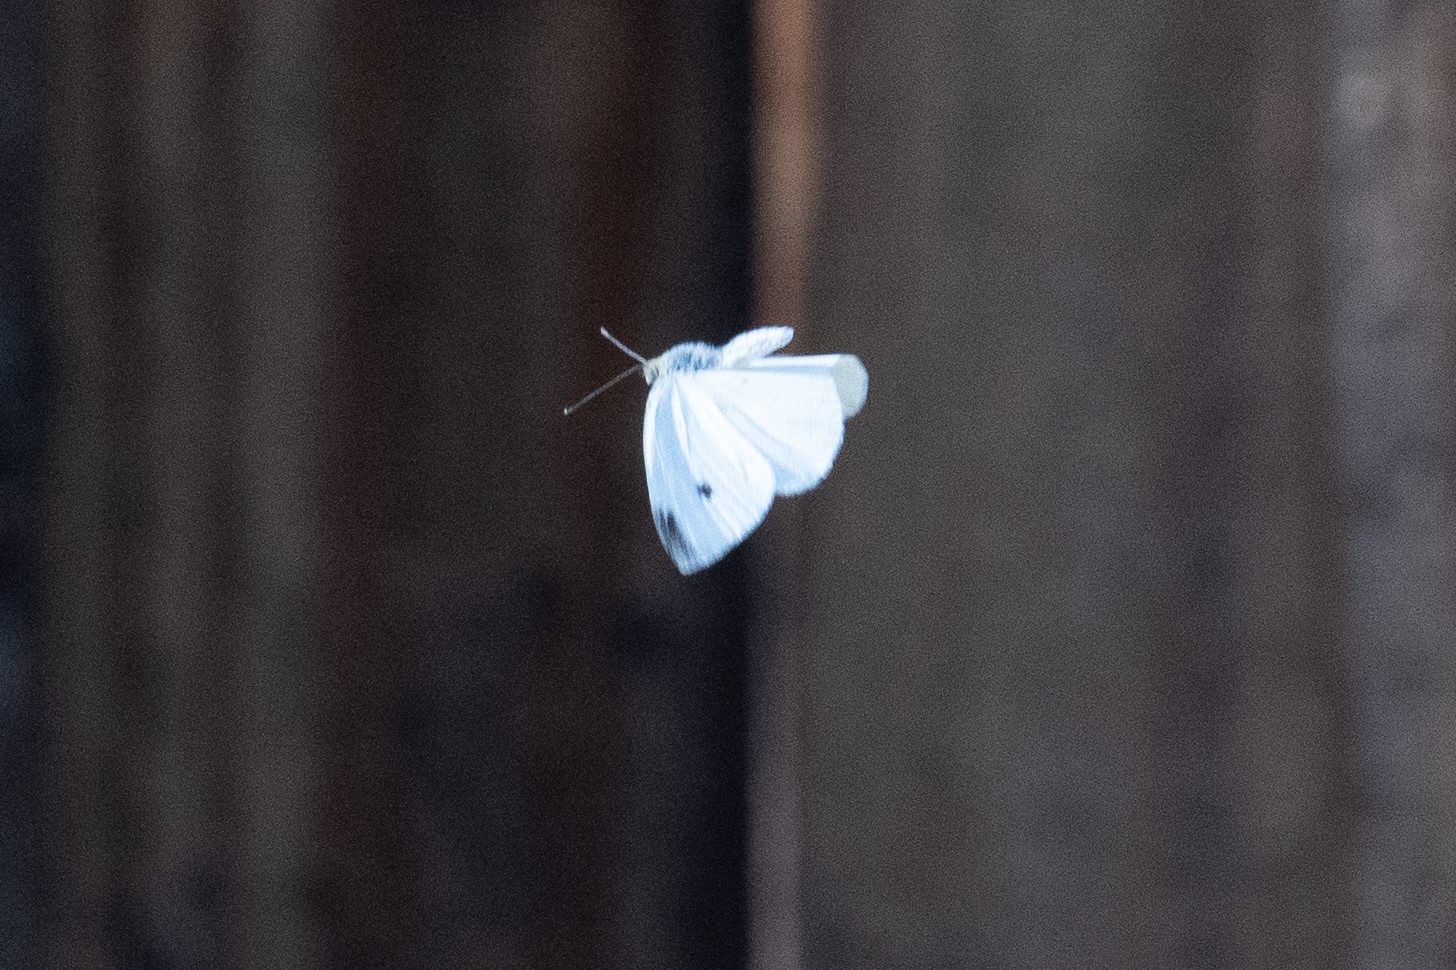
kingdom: Animalia
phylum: Arthropoda
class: Insecta
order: Lepidoptera
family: Pieridae
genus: Pieris
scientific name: Pieris rapae
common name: Small white
